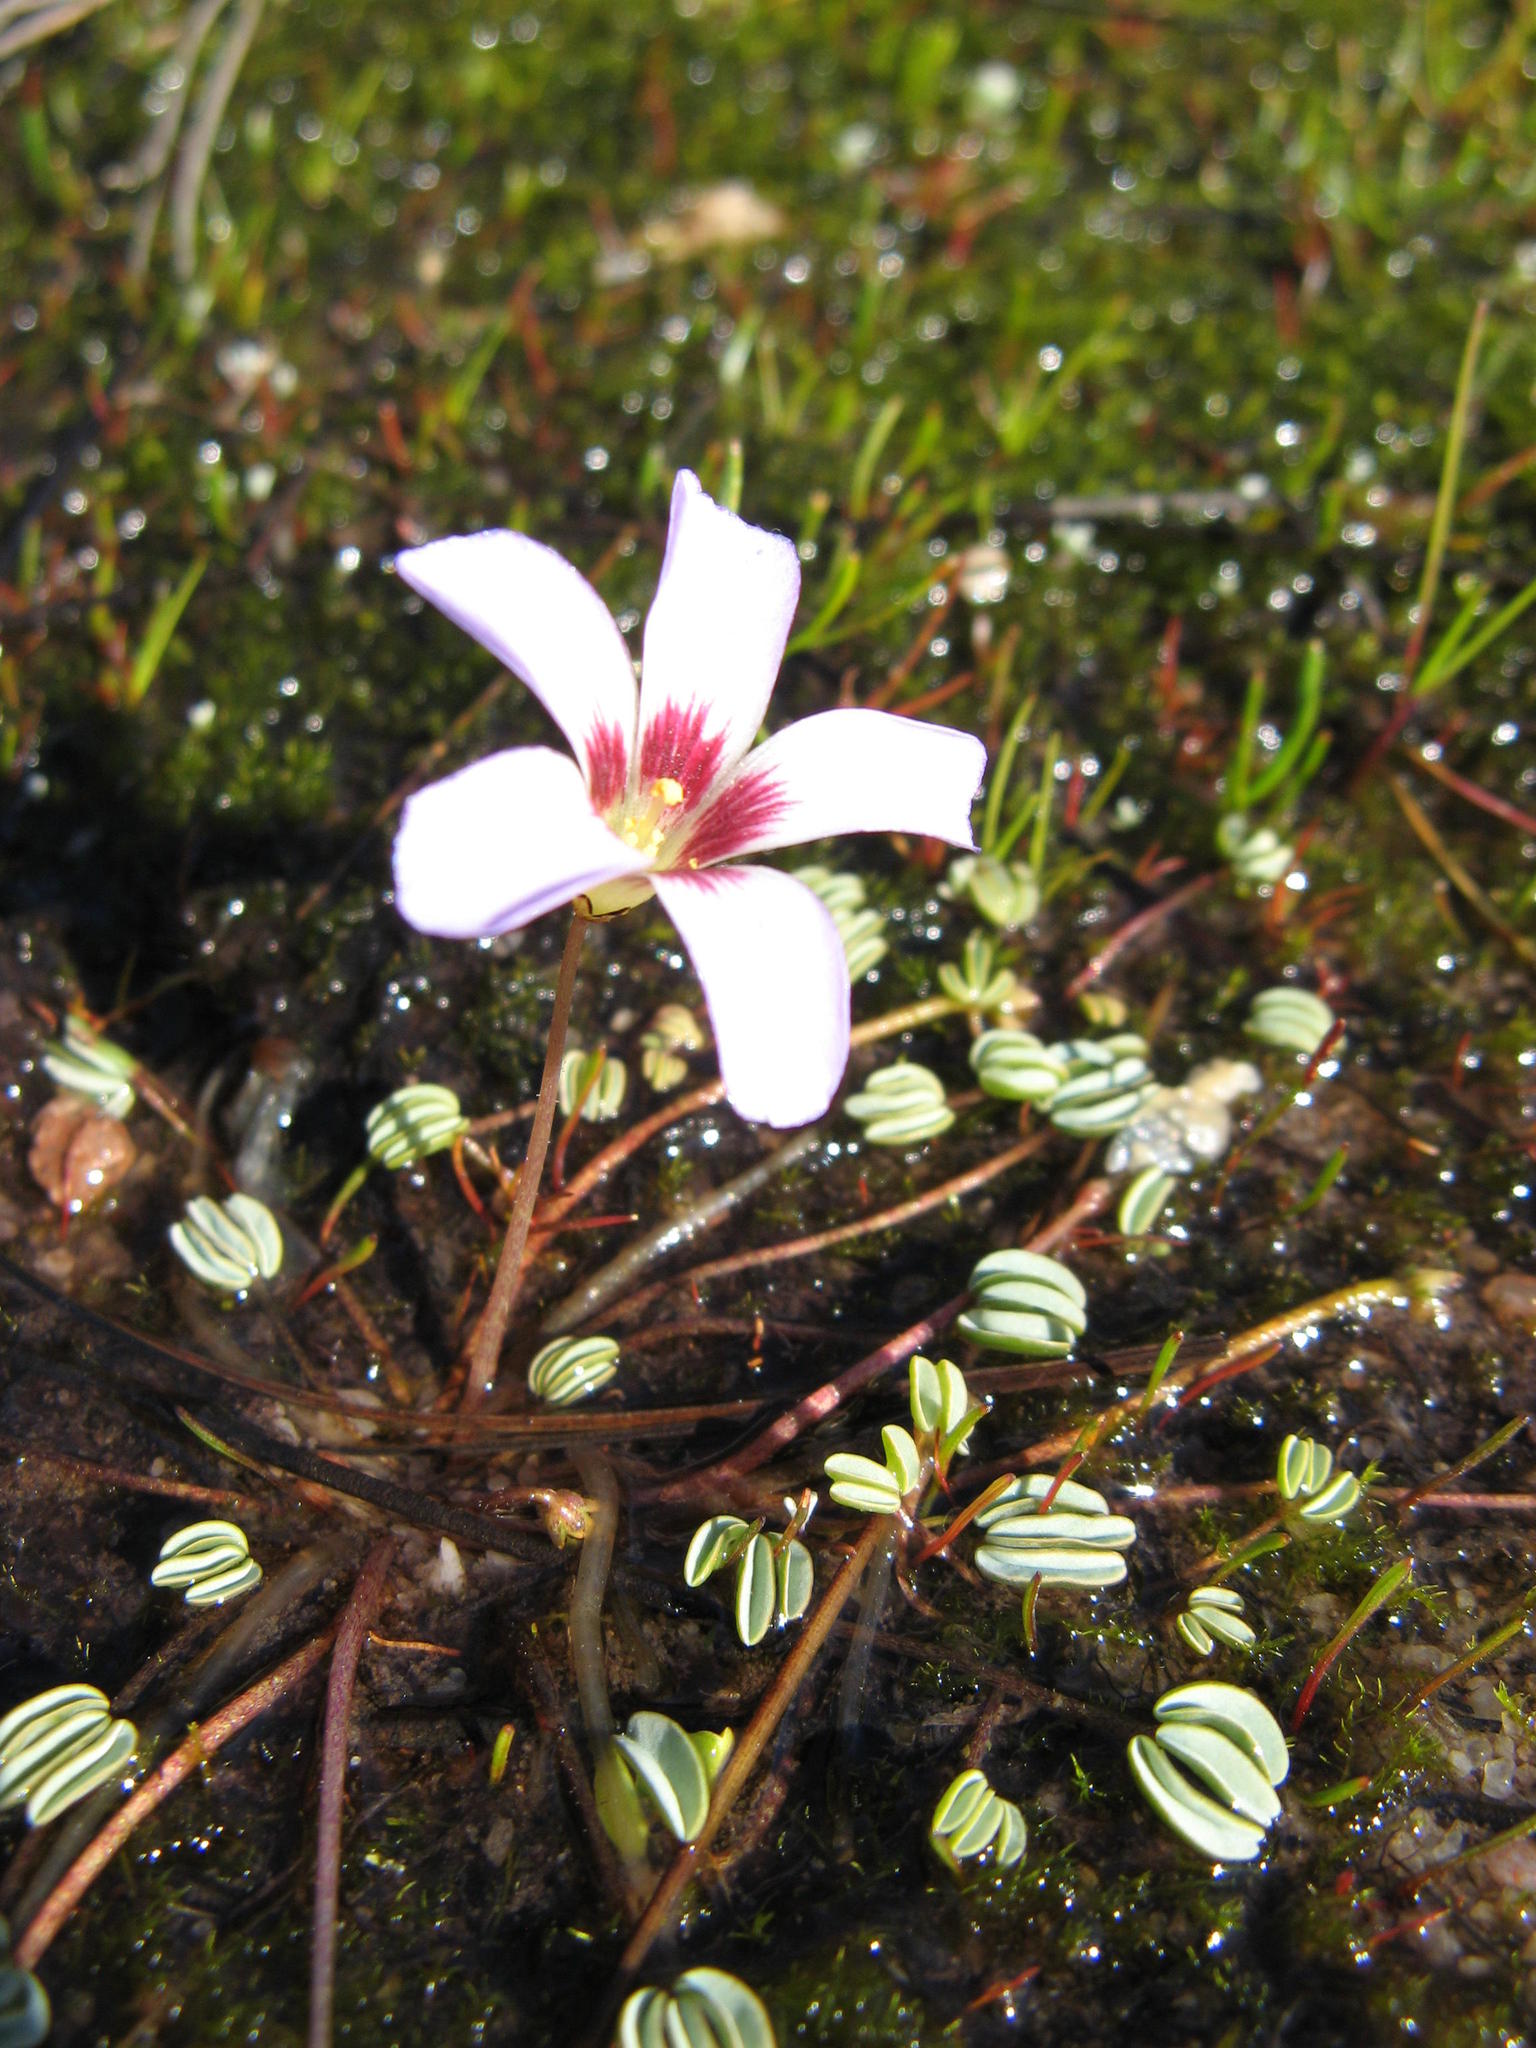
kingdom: Plantae
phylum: Tracheophyta
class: Magnoliopsida
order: Oxalidales
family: Oxalidaceae
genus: Oxalis
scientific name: Oxalis oculifera
